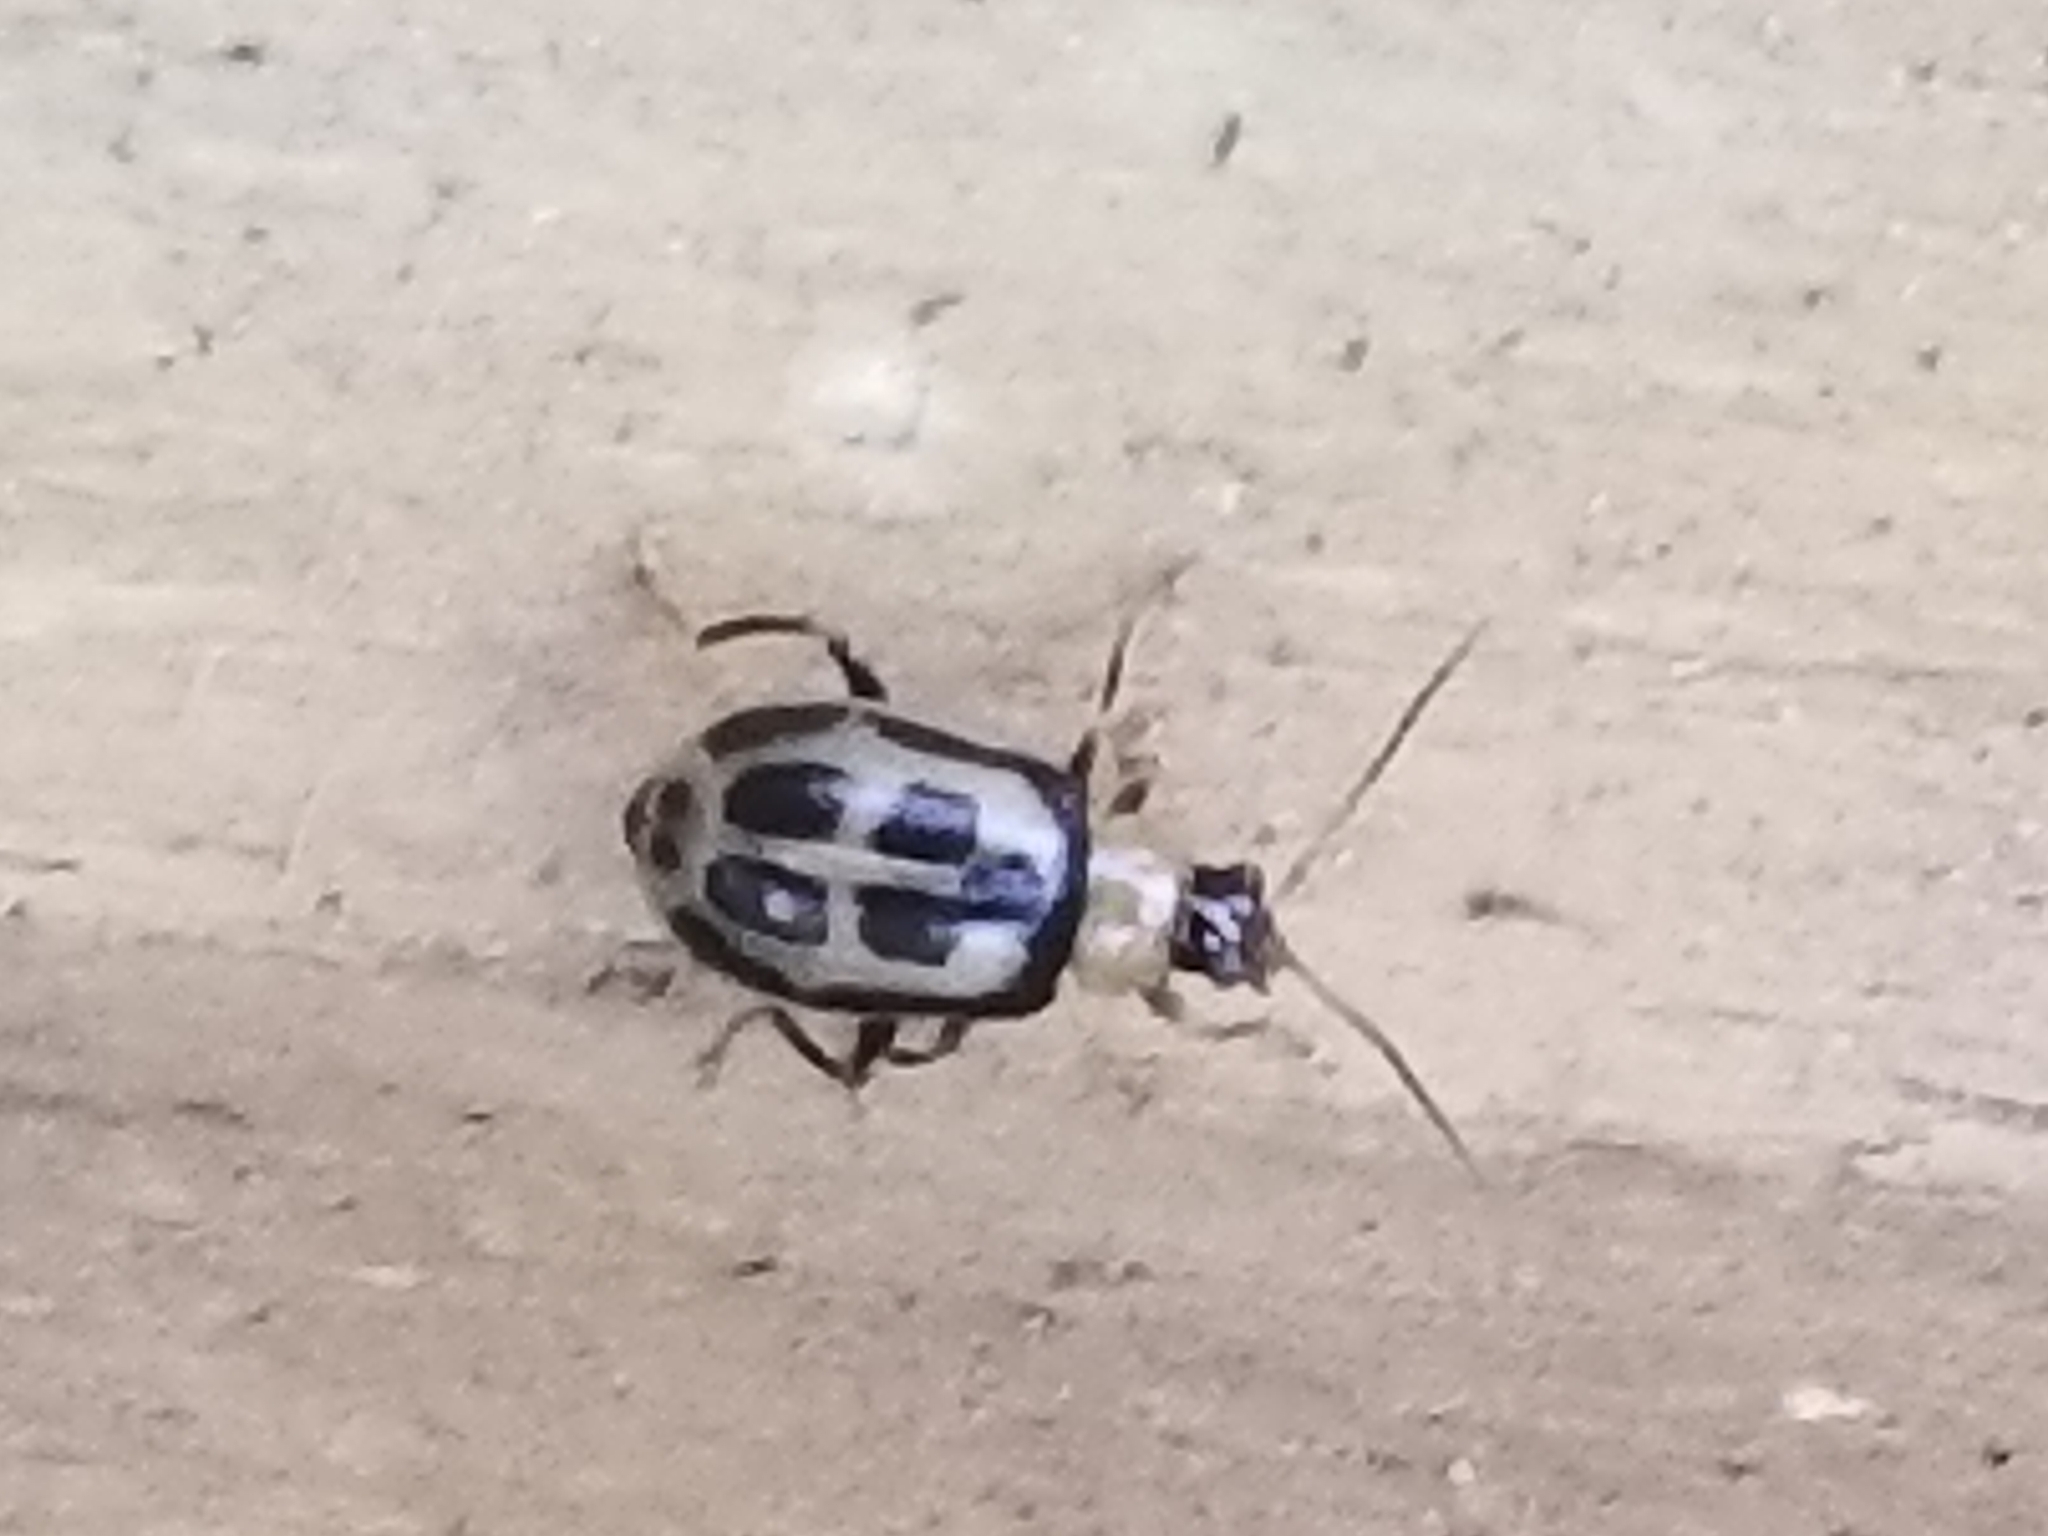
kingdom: Animalia
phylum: Arthropoda
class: Insecta
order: Coleoptera
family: Chrysomelidae
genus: Cerotoma
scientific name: Cerotoma trifurcata
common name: Bean leaf beetle
